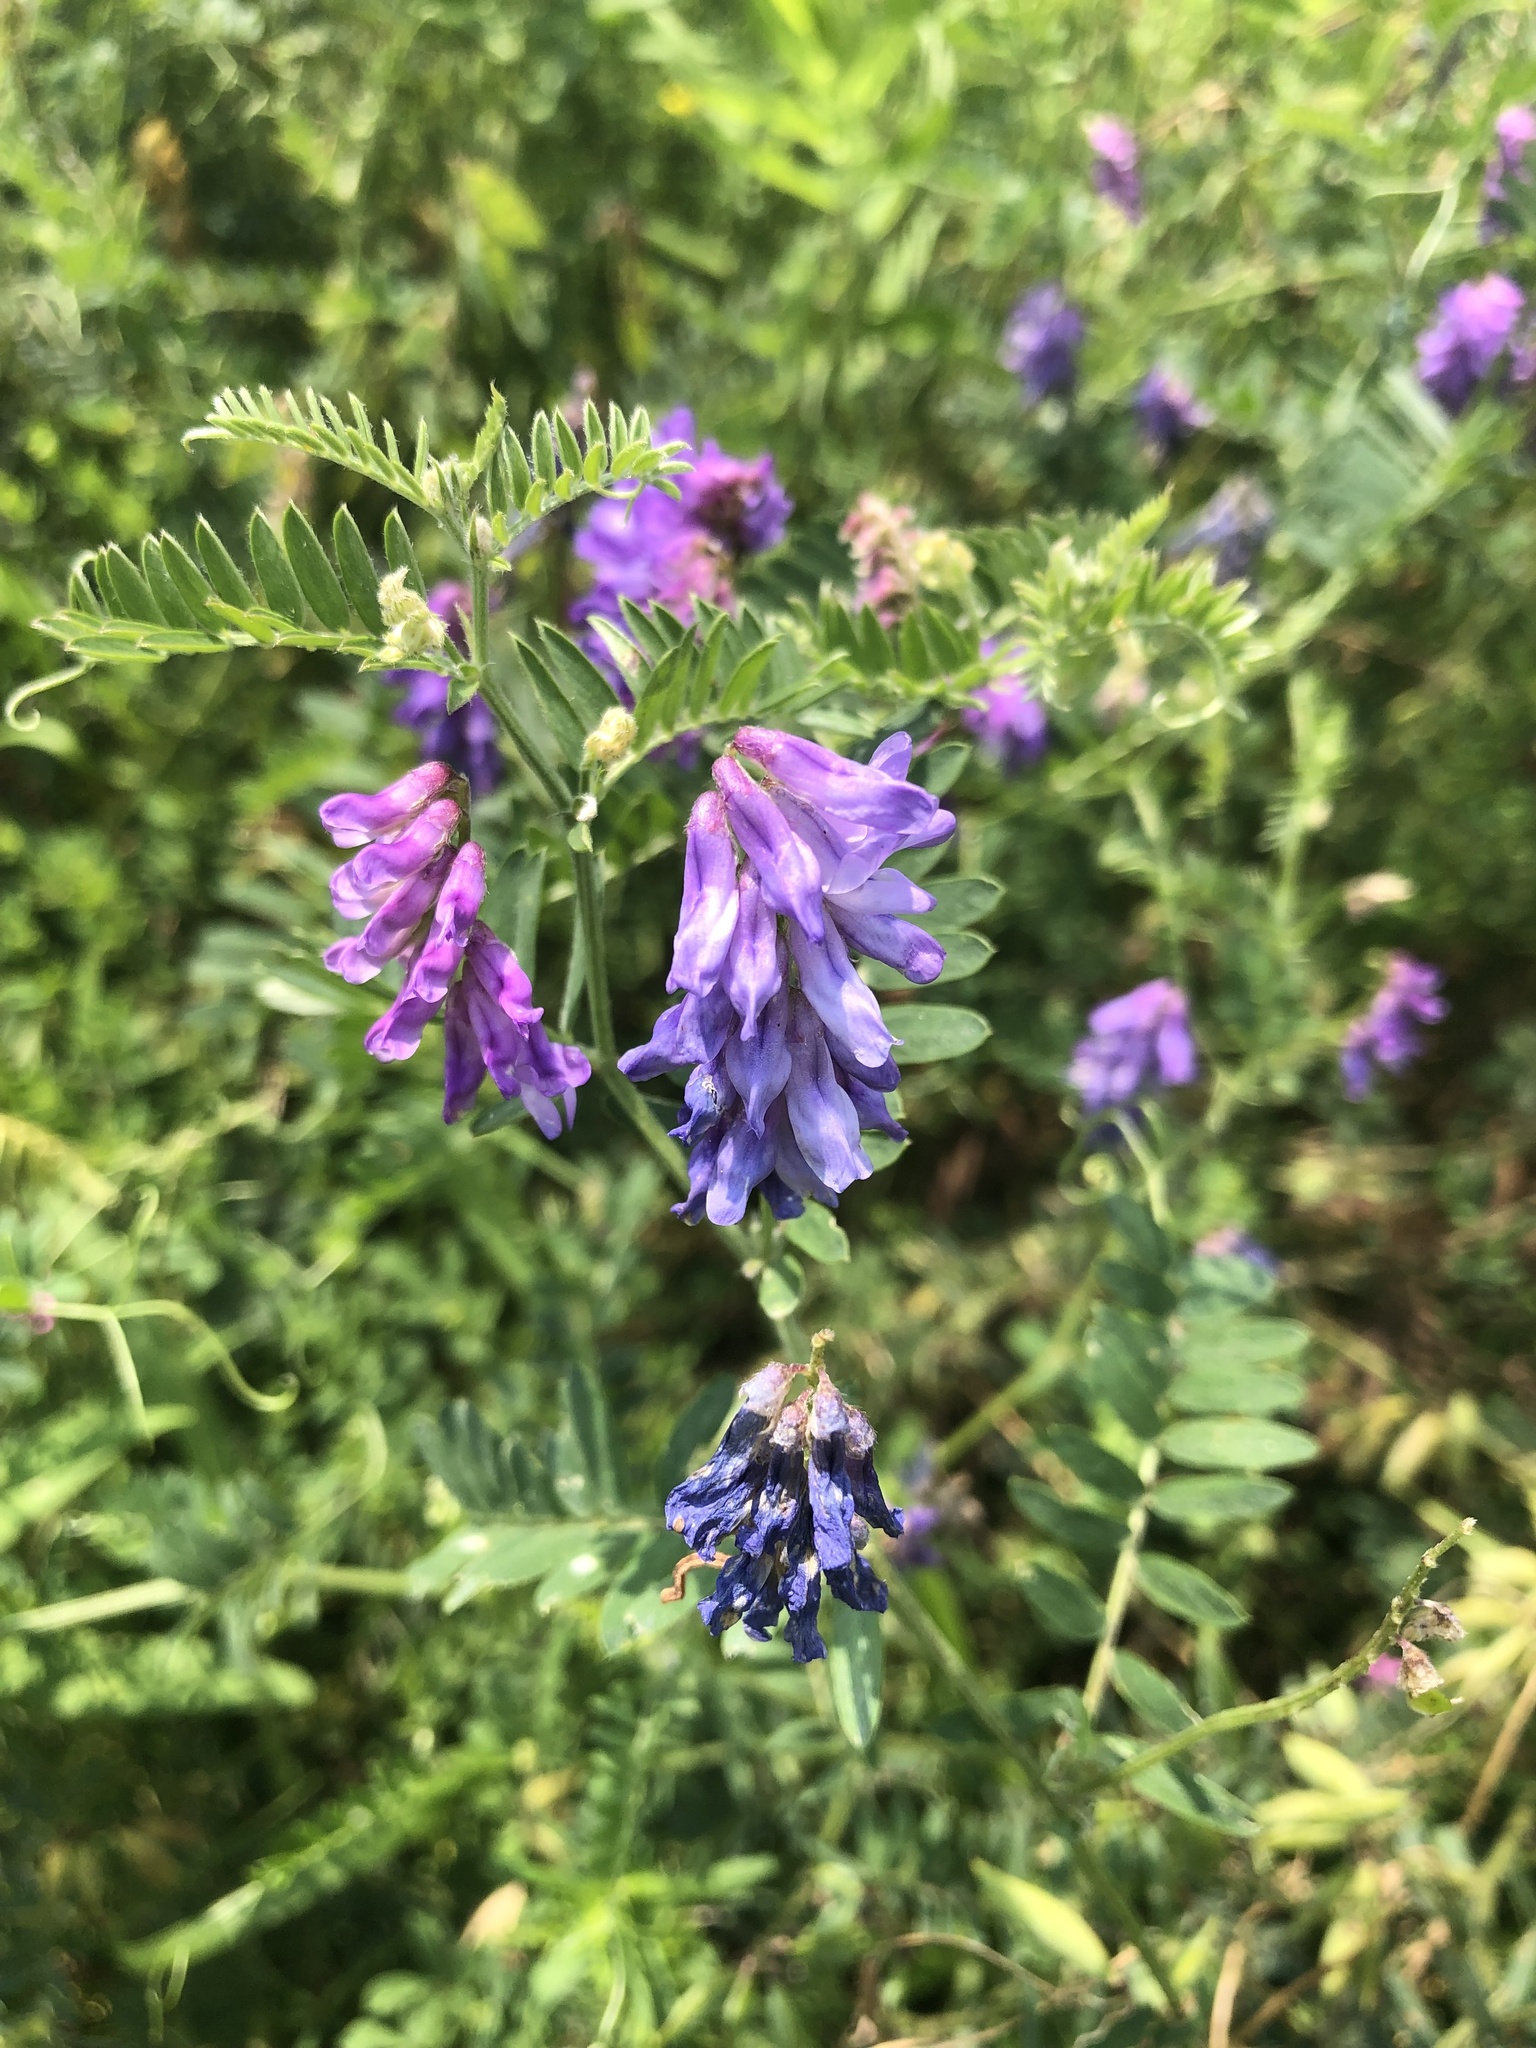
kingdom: Plantae
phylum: Tracheophyta
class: Magnoliopsida
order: Fabales
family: Fabaceae
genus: Vicia
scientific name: Vicia cracca
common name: Bird vetch
